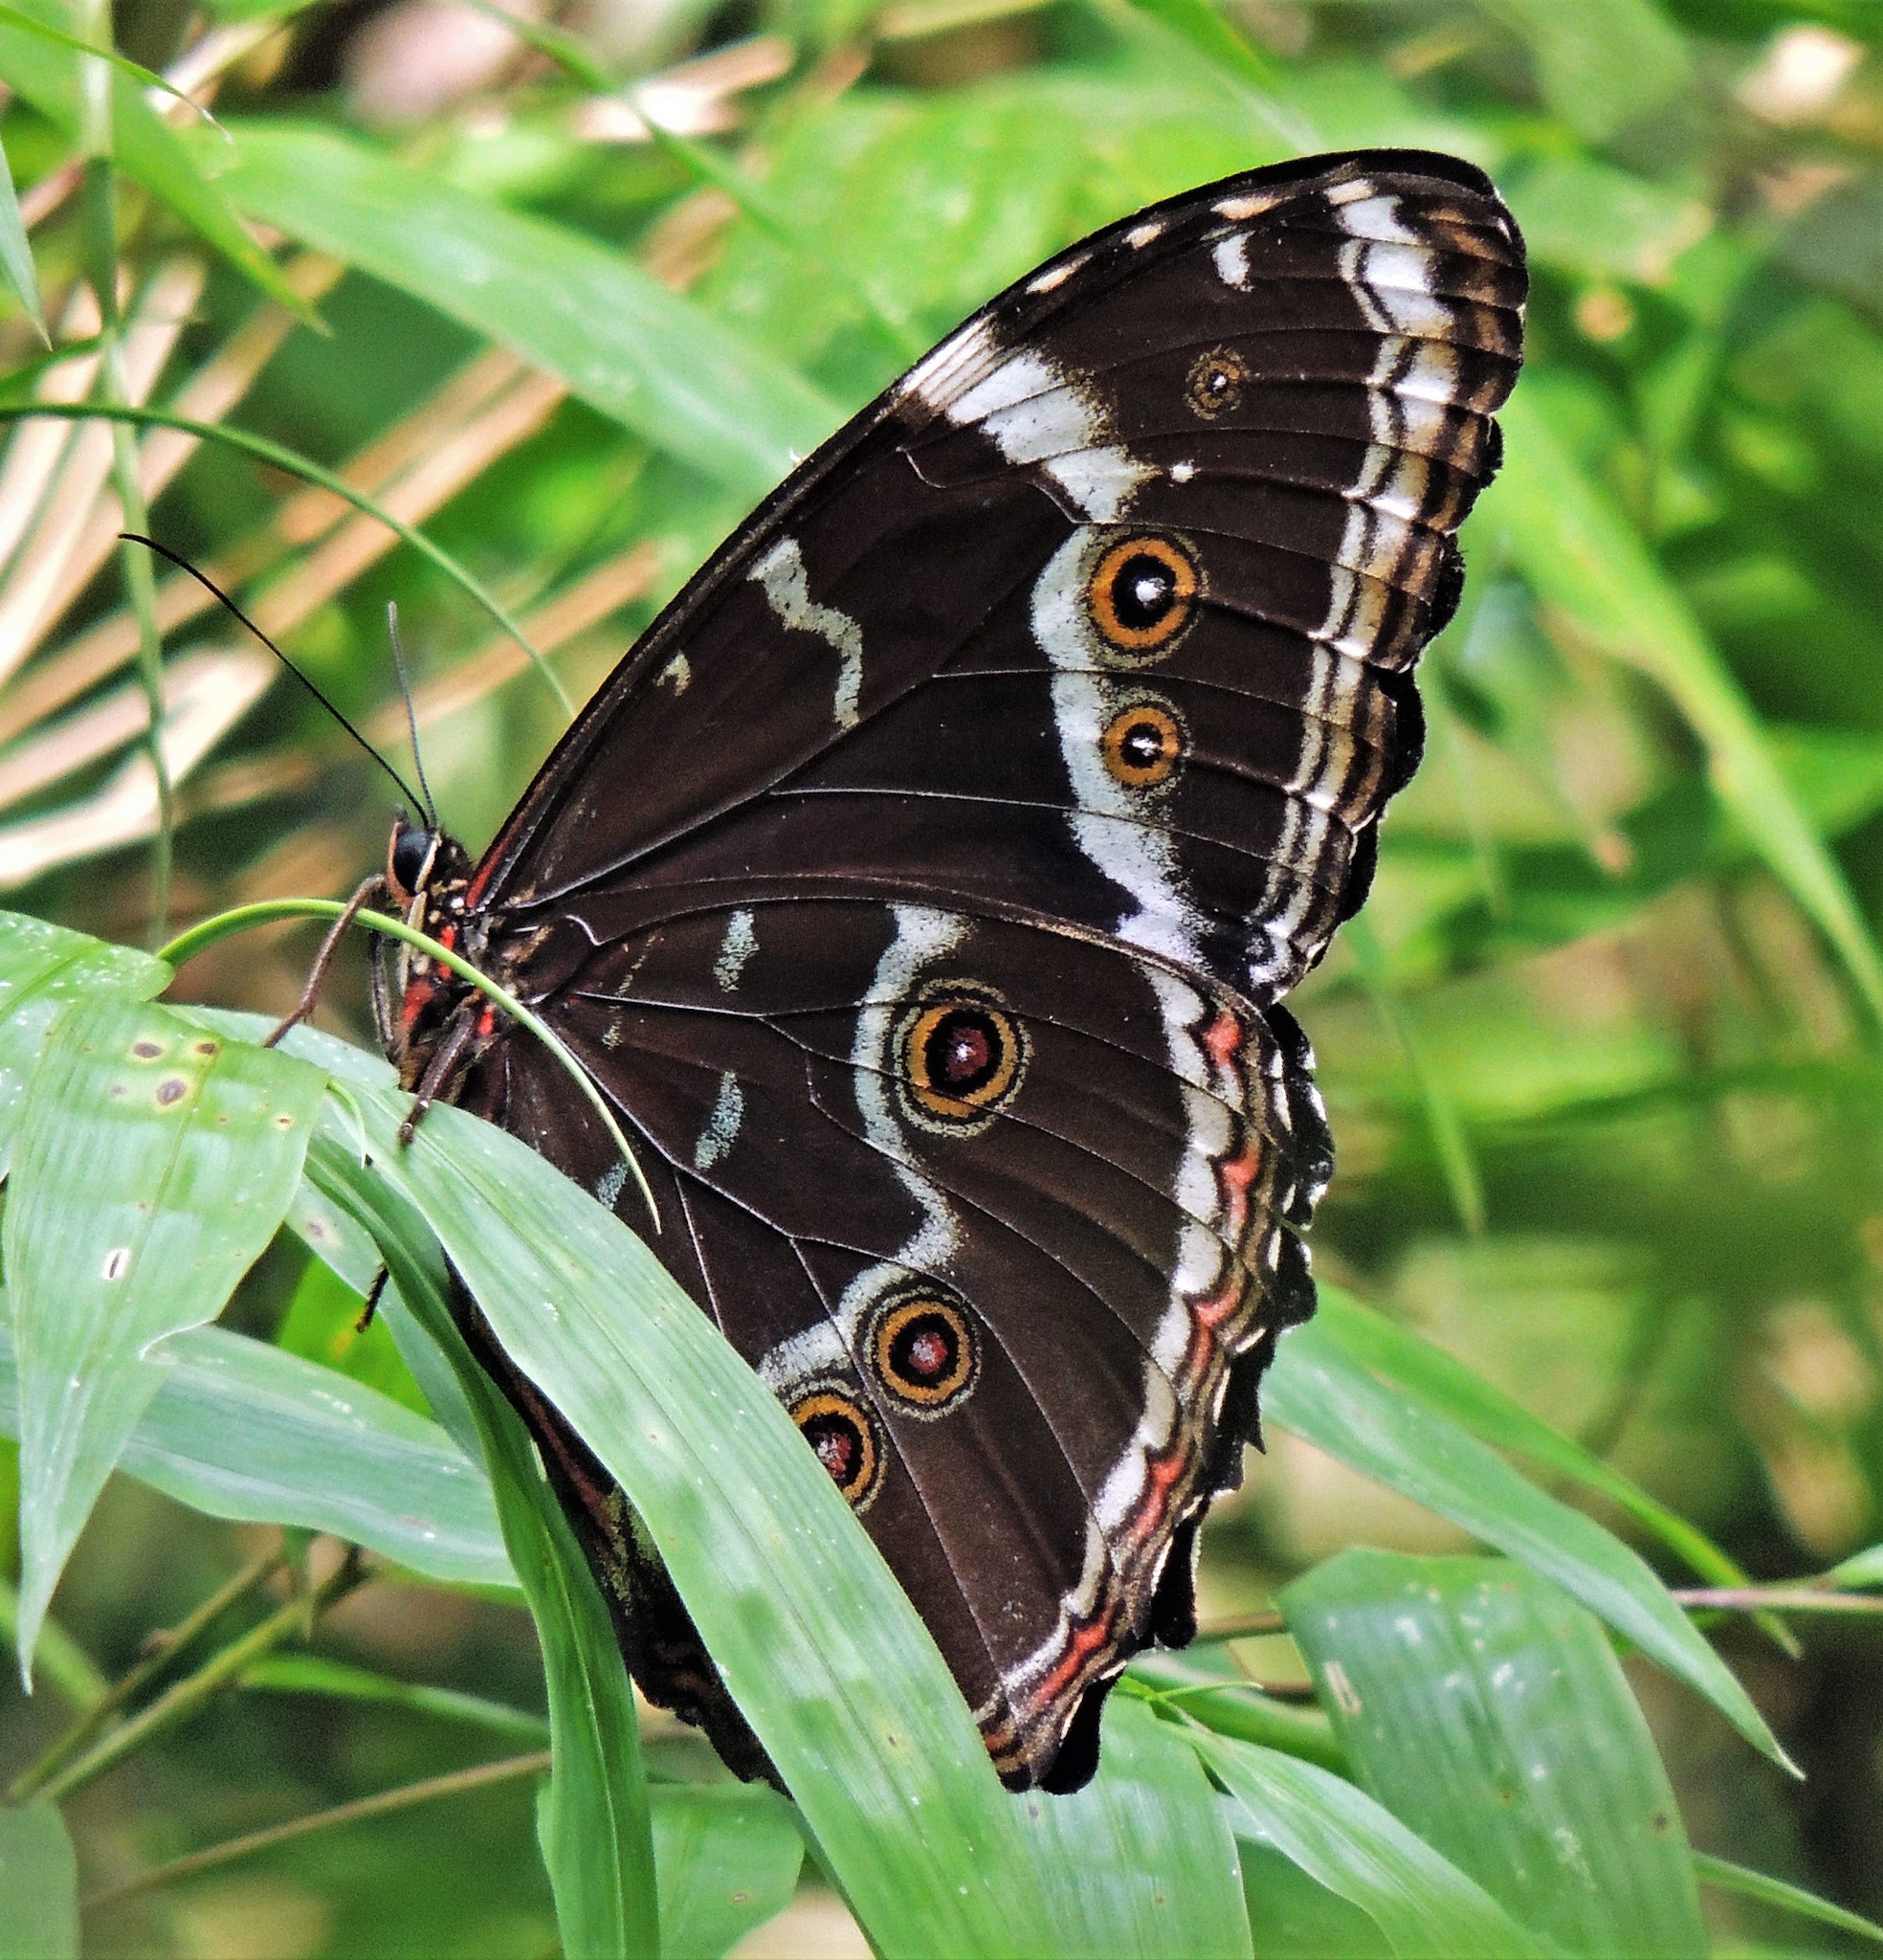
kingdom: Animalia
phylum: Arthropoda
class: Insecta
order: Lepidoptera
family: Nymphalidae
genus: Morpho
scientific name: Morpho helenor
